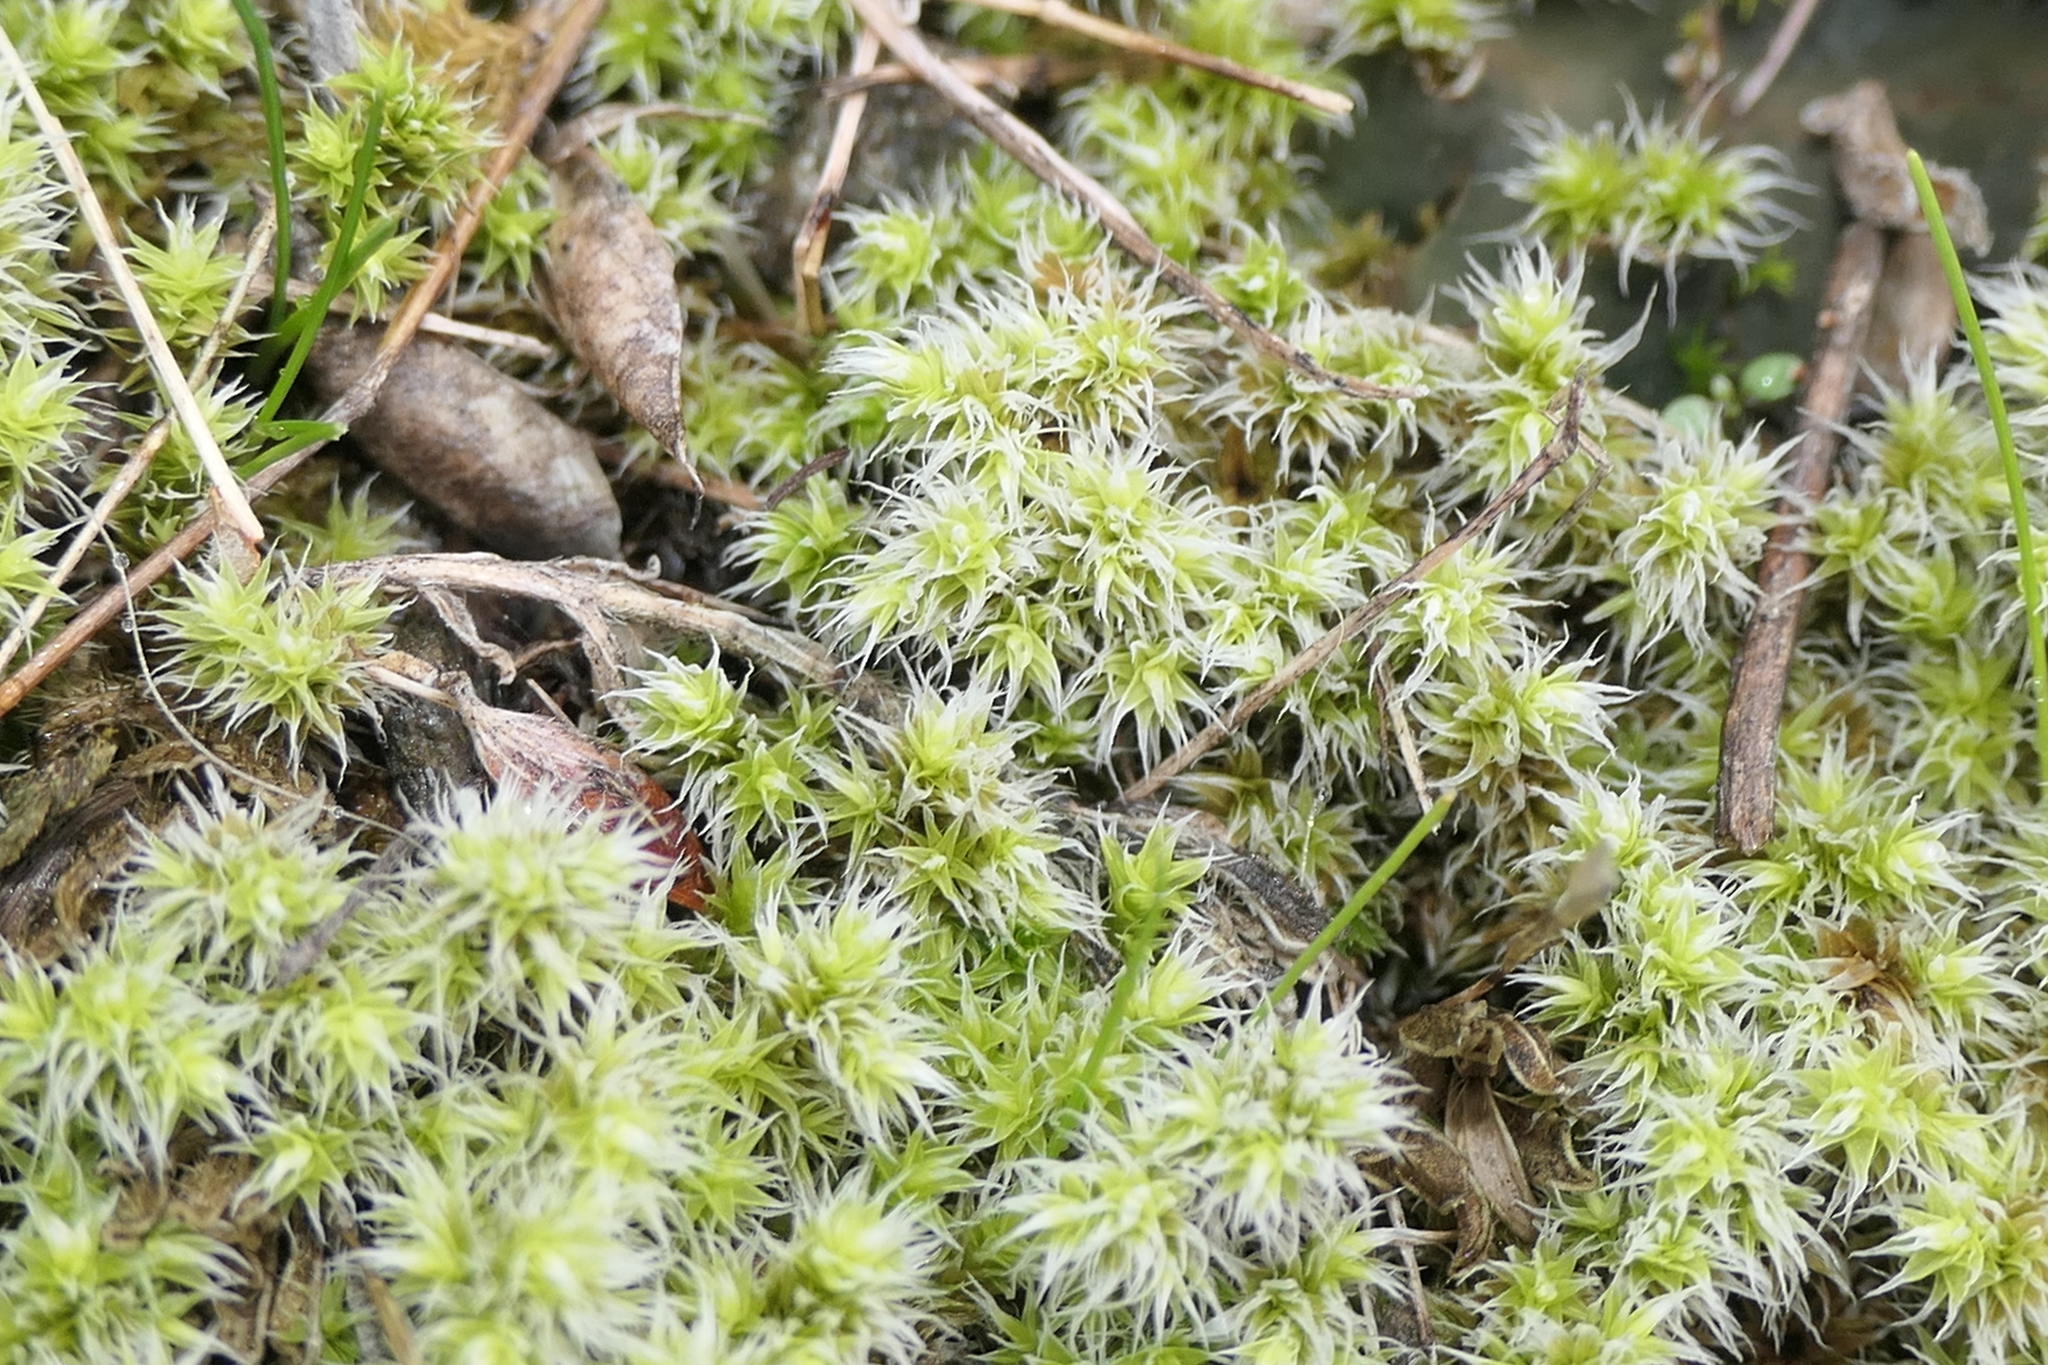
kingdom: Plantae
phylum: Bryophyta
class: Bryopsida
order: Grimmiales
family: Grimmiaceae
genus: Niphotrichum
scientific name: Niphotrichum elongatum
